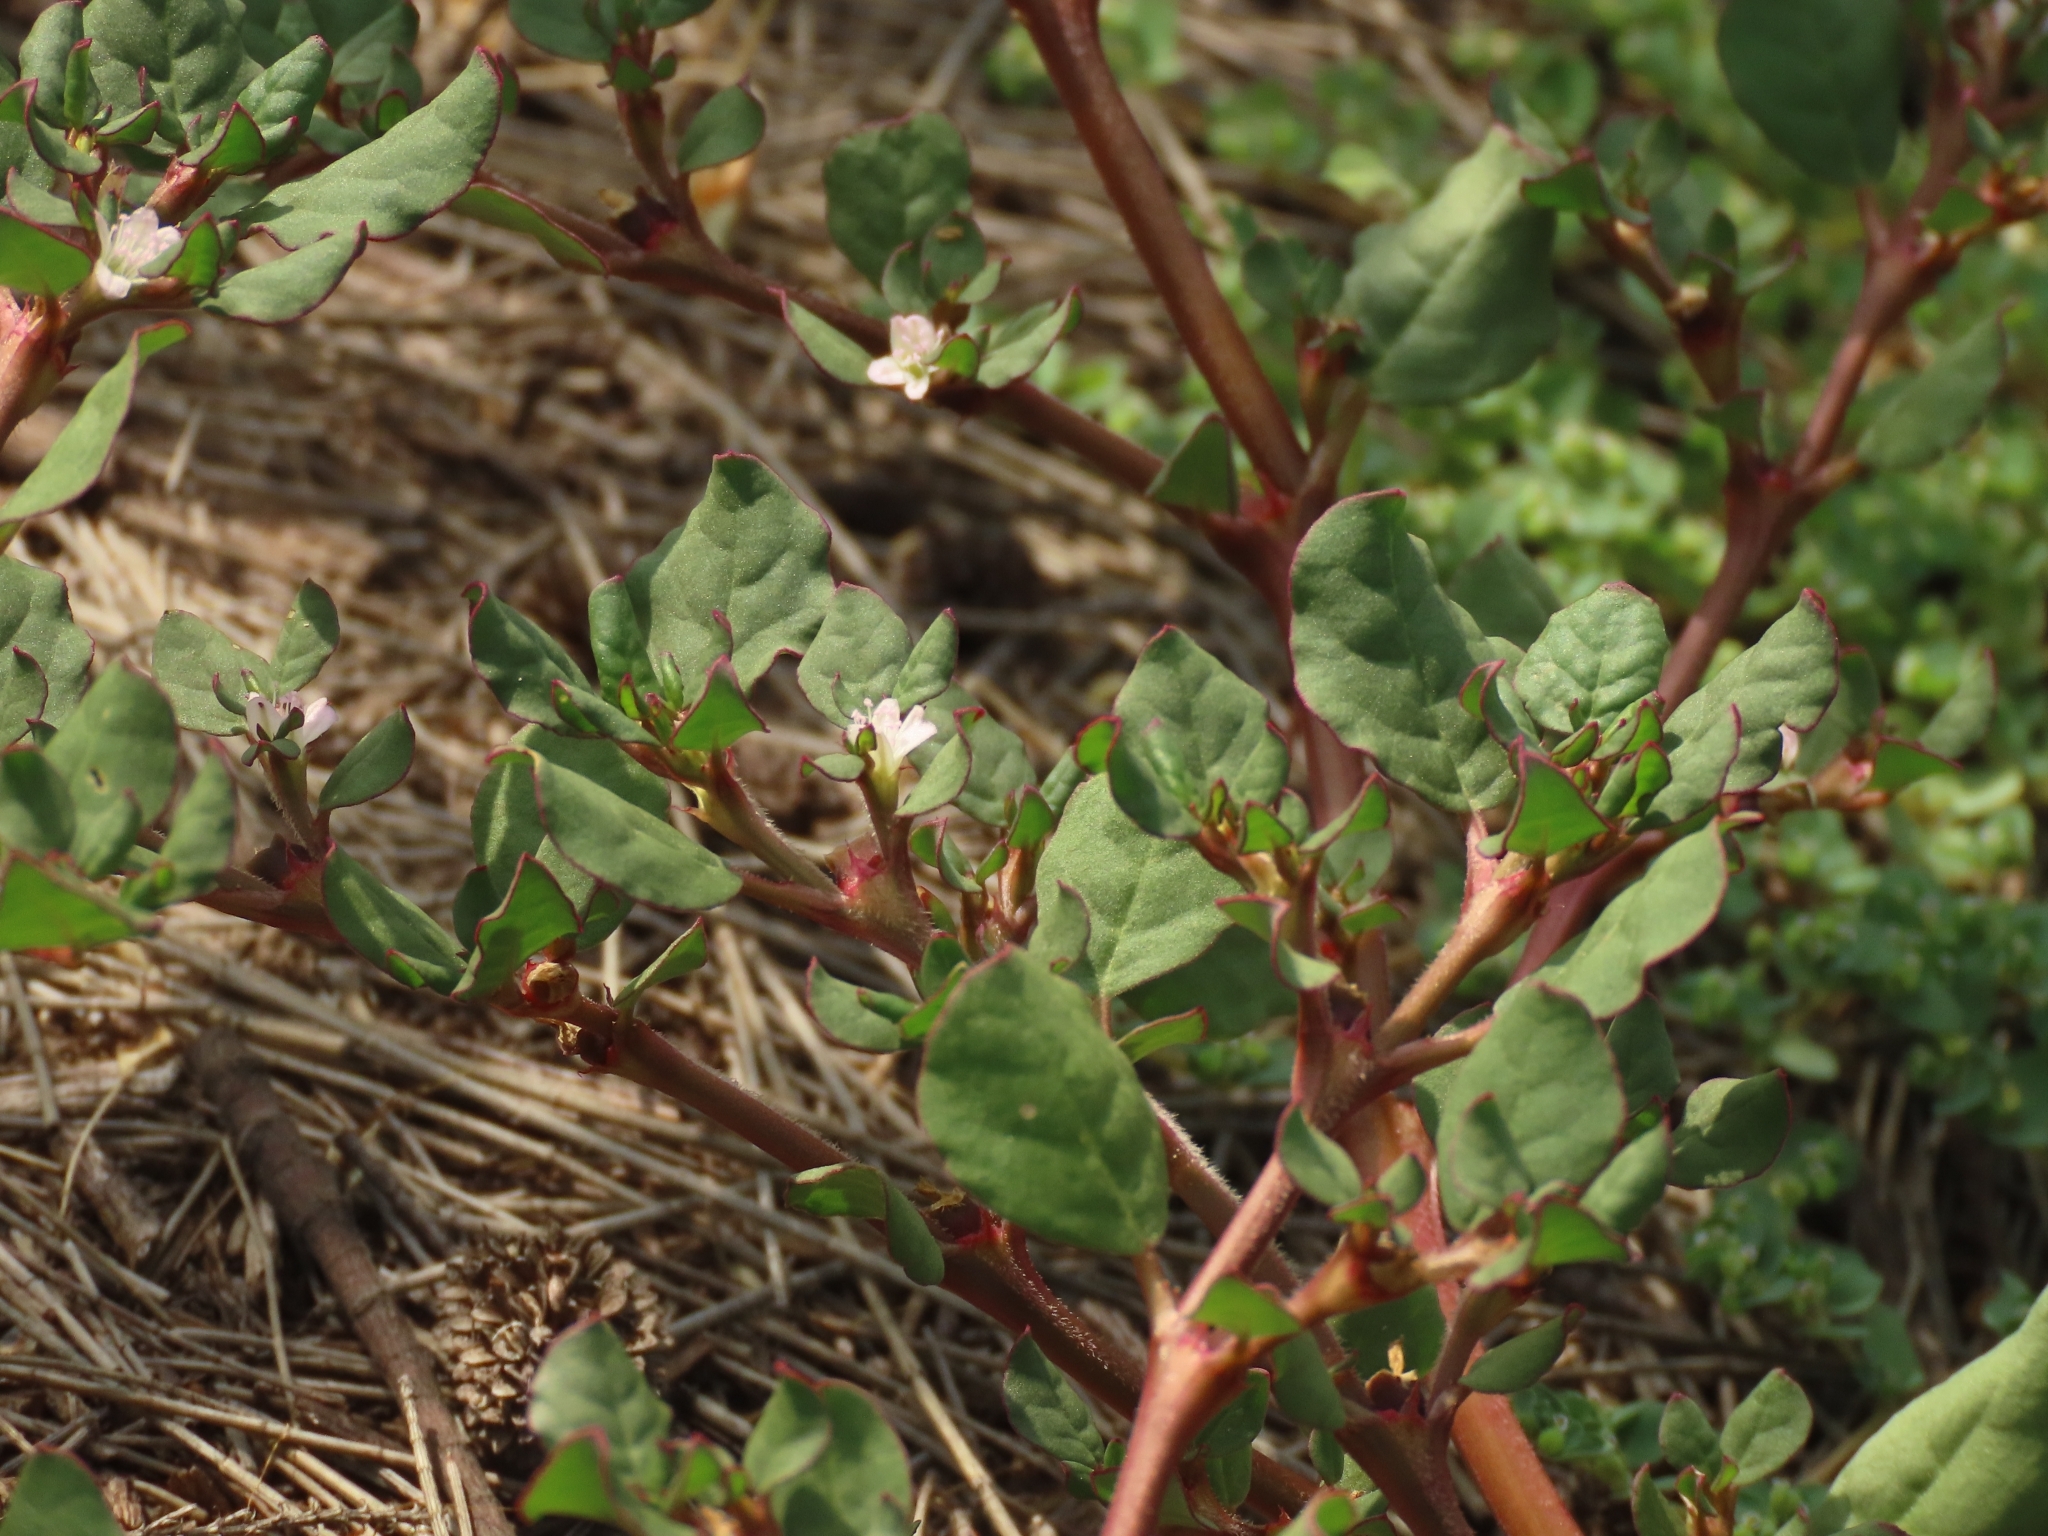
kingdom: Plantae
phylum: Tracheophyta
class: Magnoliopsida
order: Caryophyllales
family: Aizoaceae
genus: Trianthema
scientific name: Trianthema portulacastrum
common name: Desert horsepurslane
